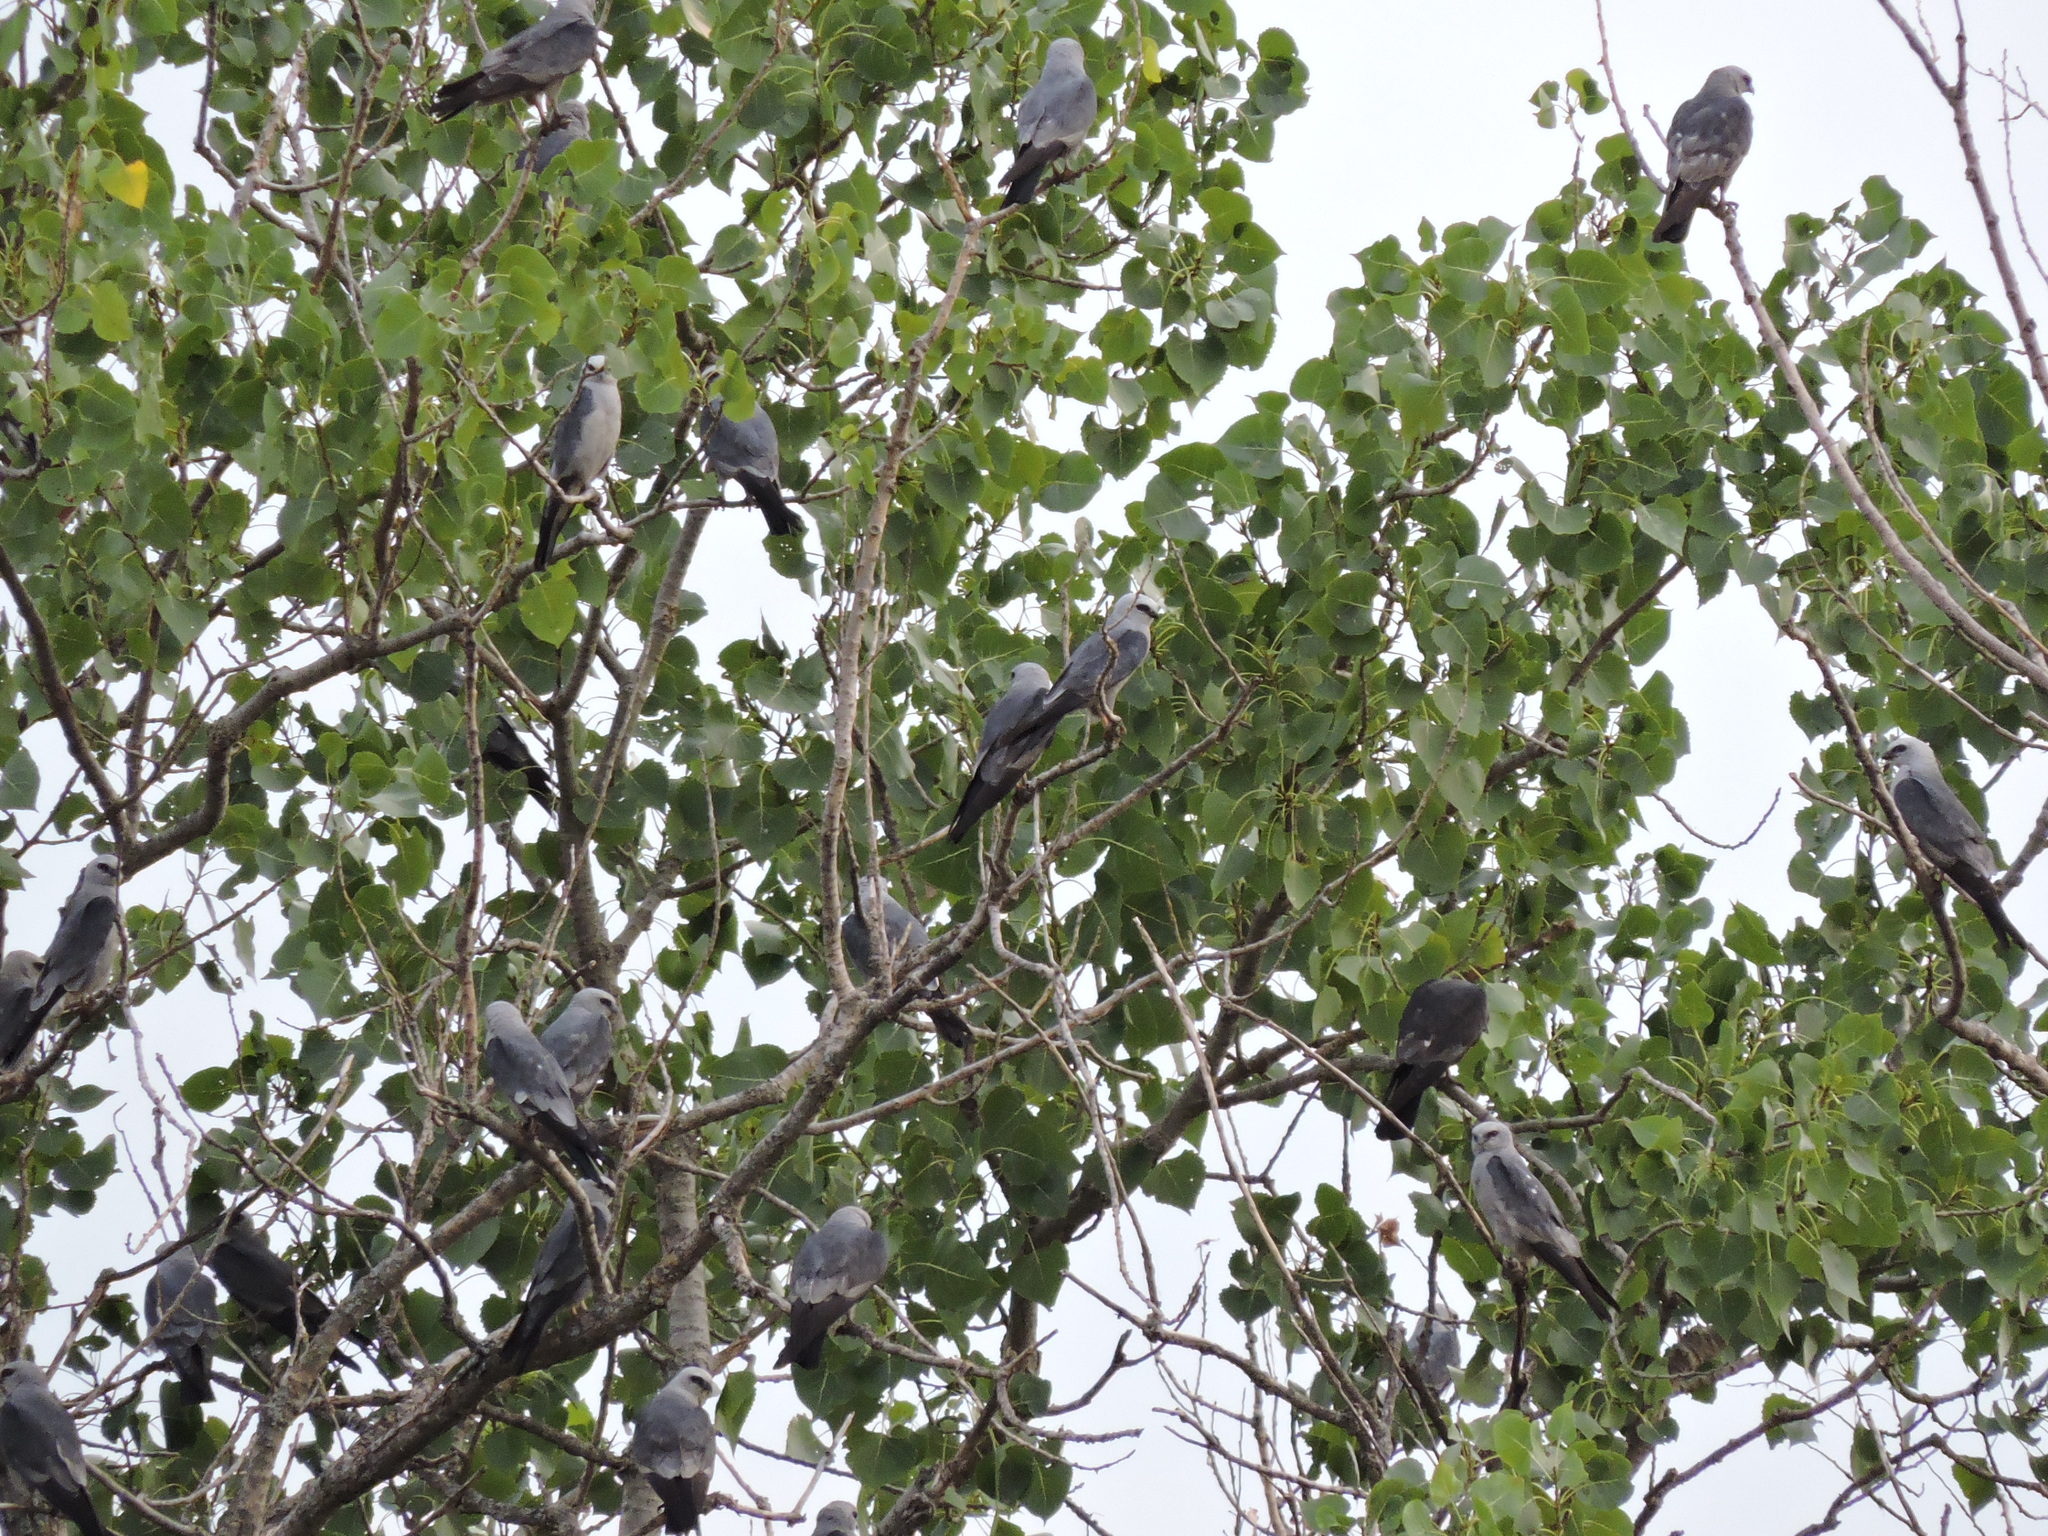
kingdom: Animalia
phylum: Chordata
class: Aves
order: Accipitriformes
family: Accipitridae
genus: Ictinia
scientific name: Ictinia mississippiensis
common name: Mississippi kite
